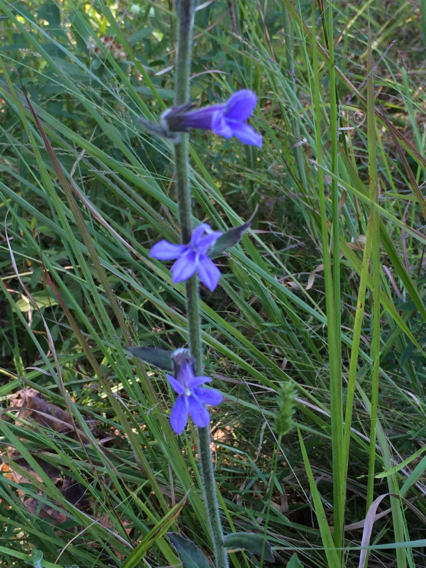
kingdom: Plantae
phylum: Tracheophyta
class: Magnoliopsida
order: Asterales
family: Campanulaceae
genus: Lobelia
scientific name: Lobelia reverchonii
